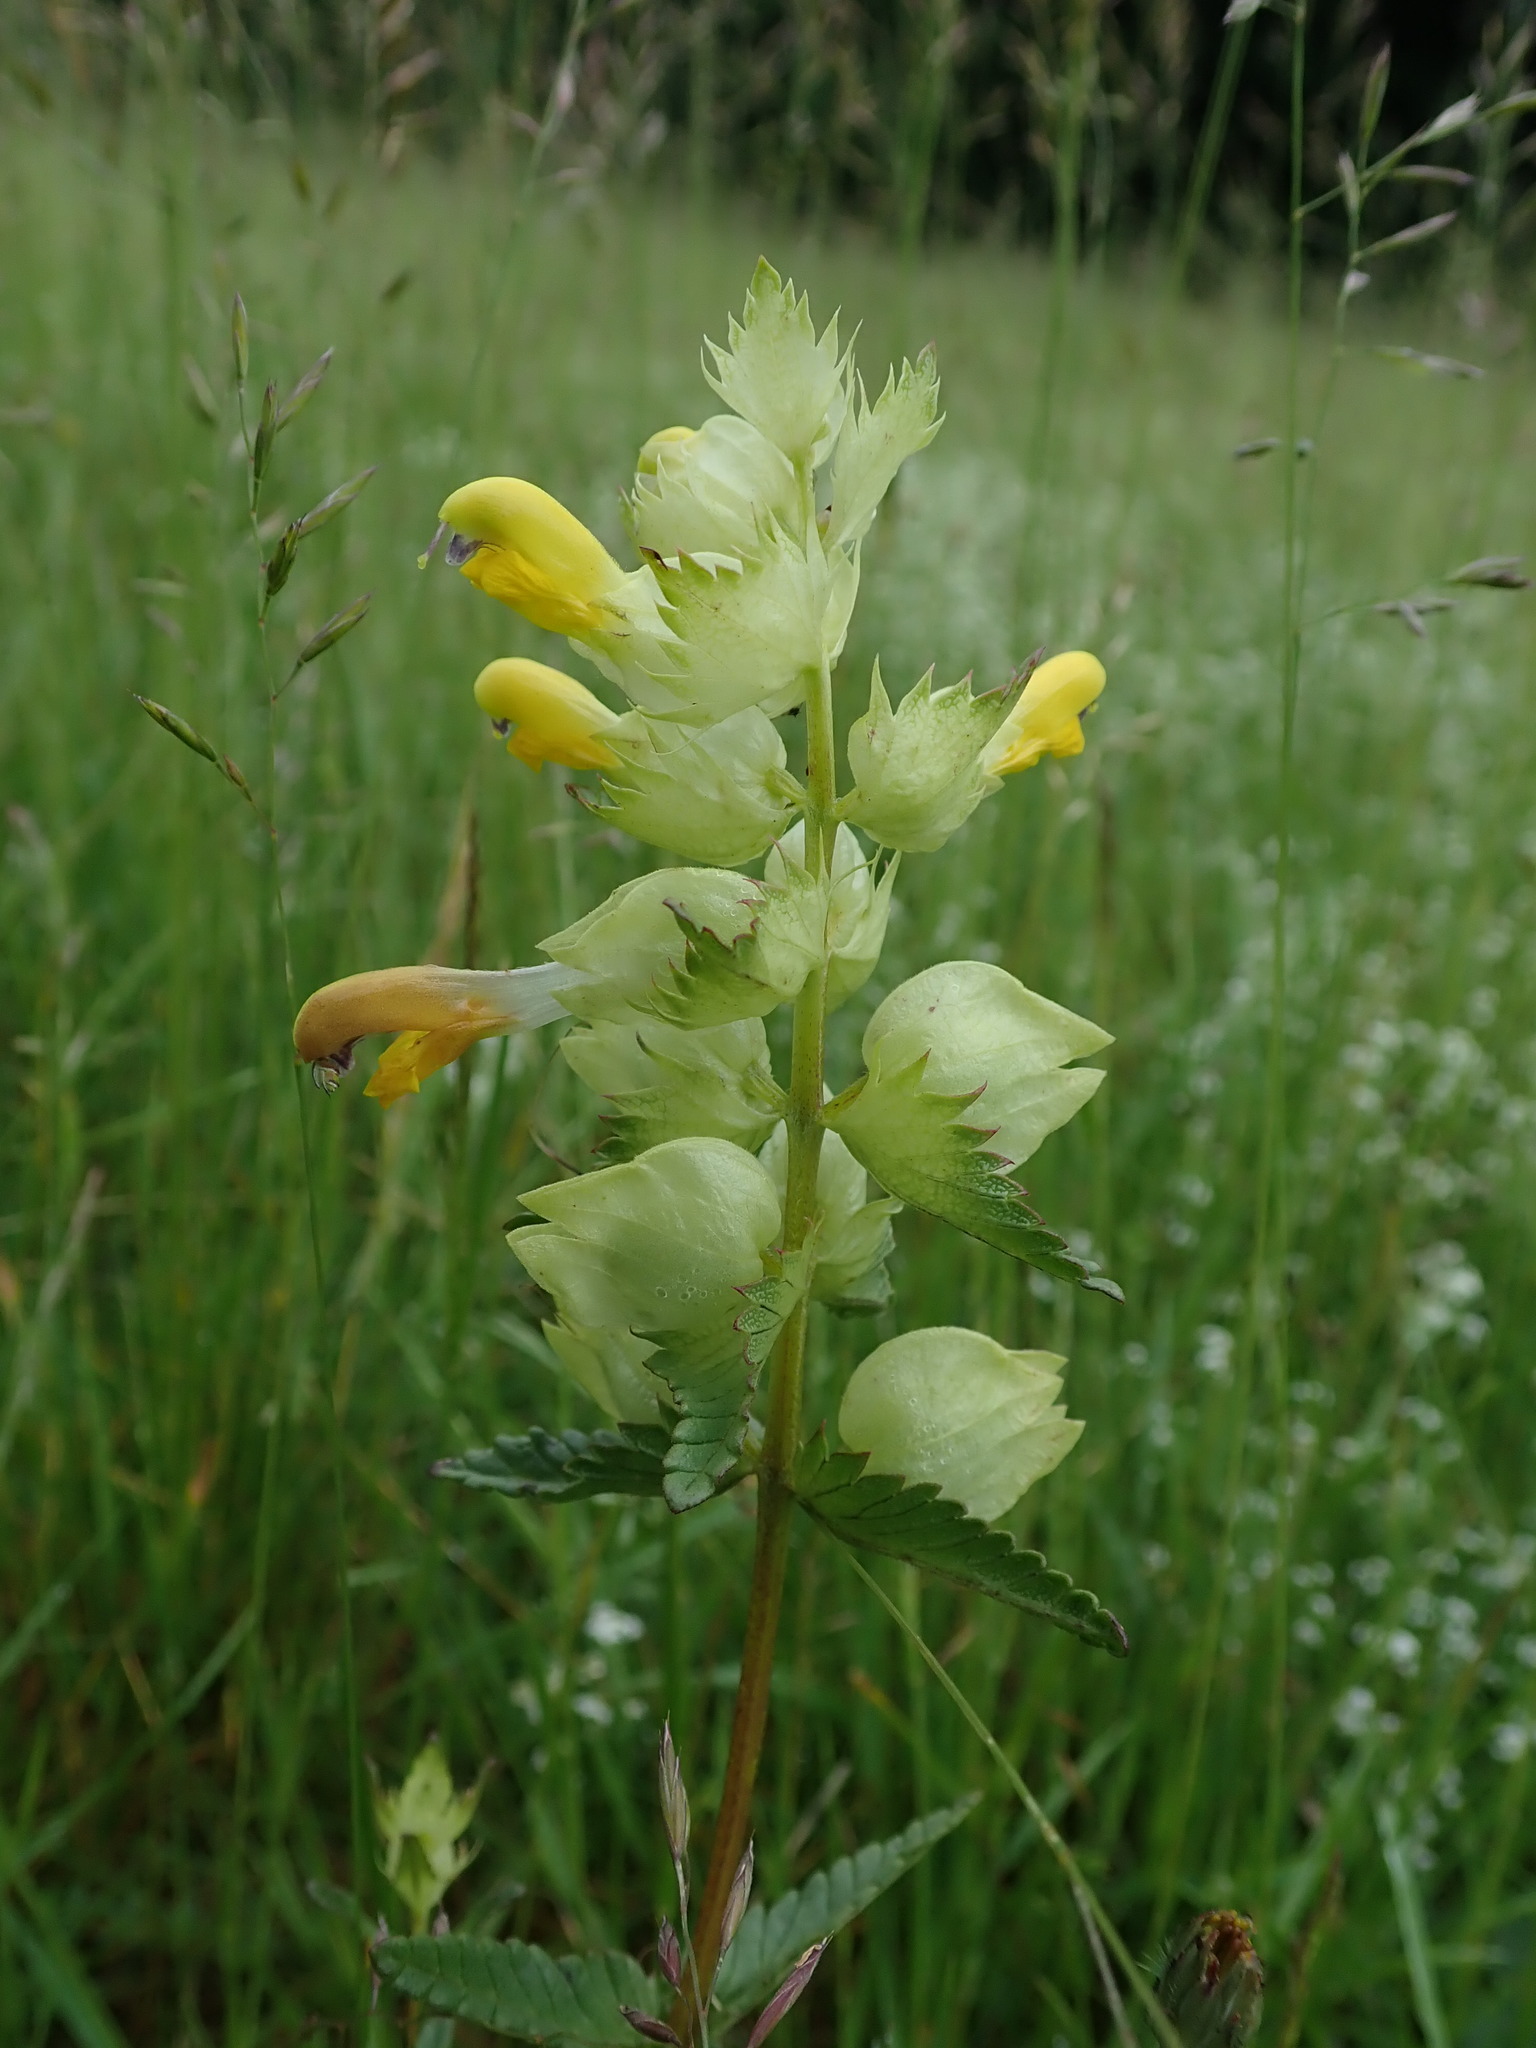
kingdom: Plantae
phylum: Tracheophyta
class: Magnoliopsida
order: Lamiales
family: Orobanchaceae
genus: Rhinanthus
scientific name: Rhinanthus minor
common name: Yellow-rattle
